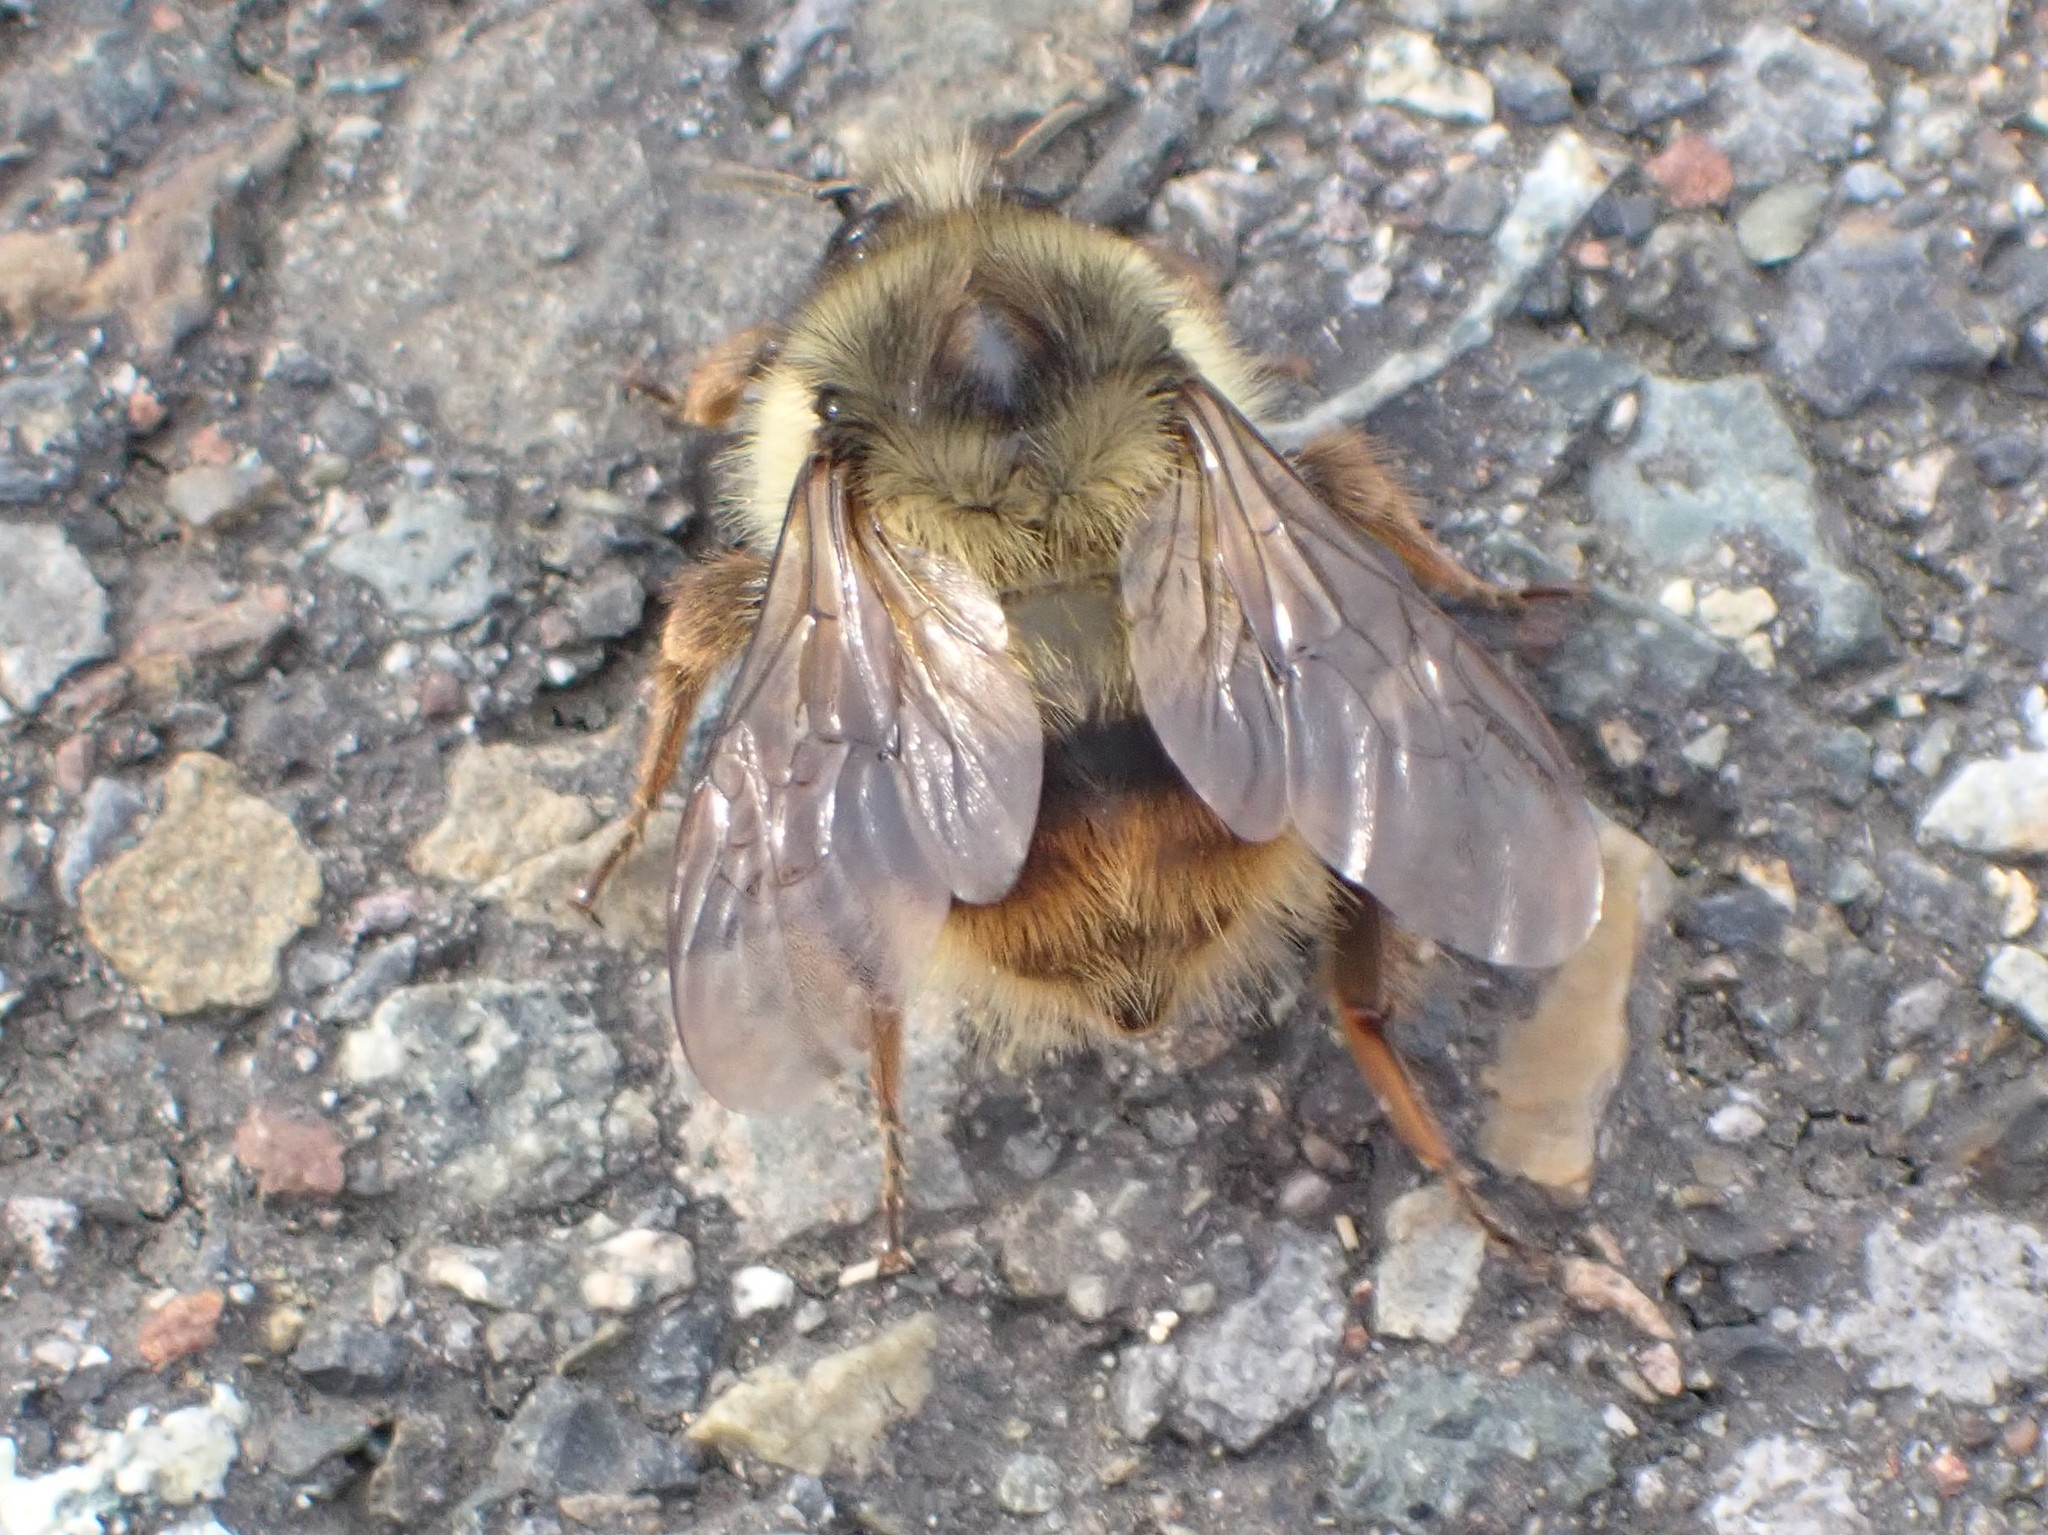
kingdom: Animalia
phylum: Arthropoda
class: Insecta
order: Hymenoptera
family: Apidae
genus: Bombus
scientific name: Bombus mixtus
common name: Fuzzy-horned bumble bee
